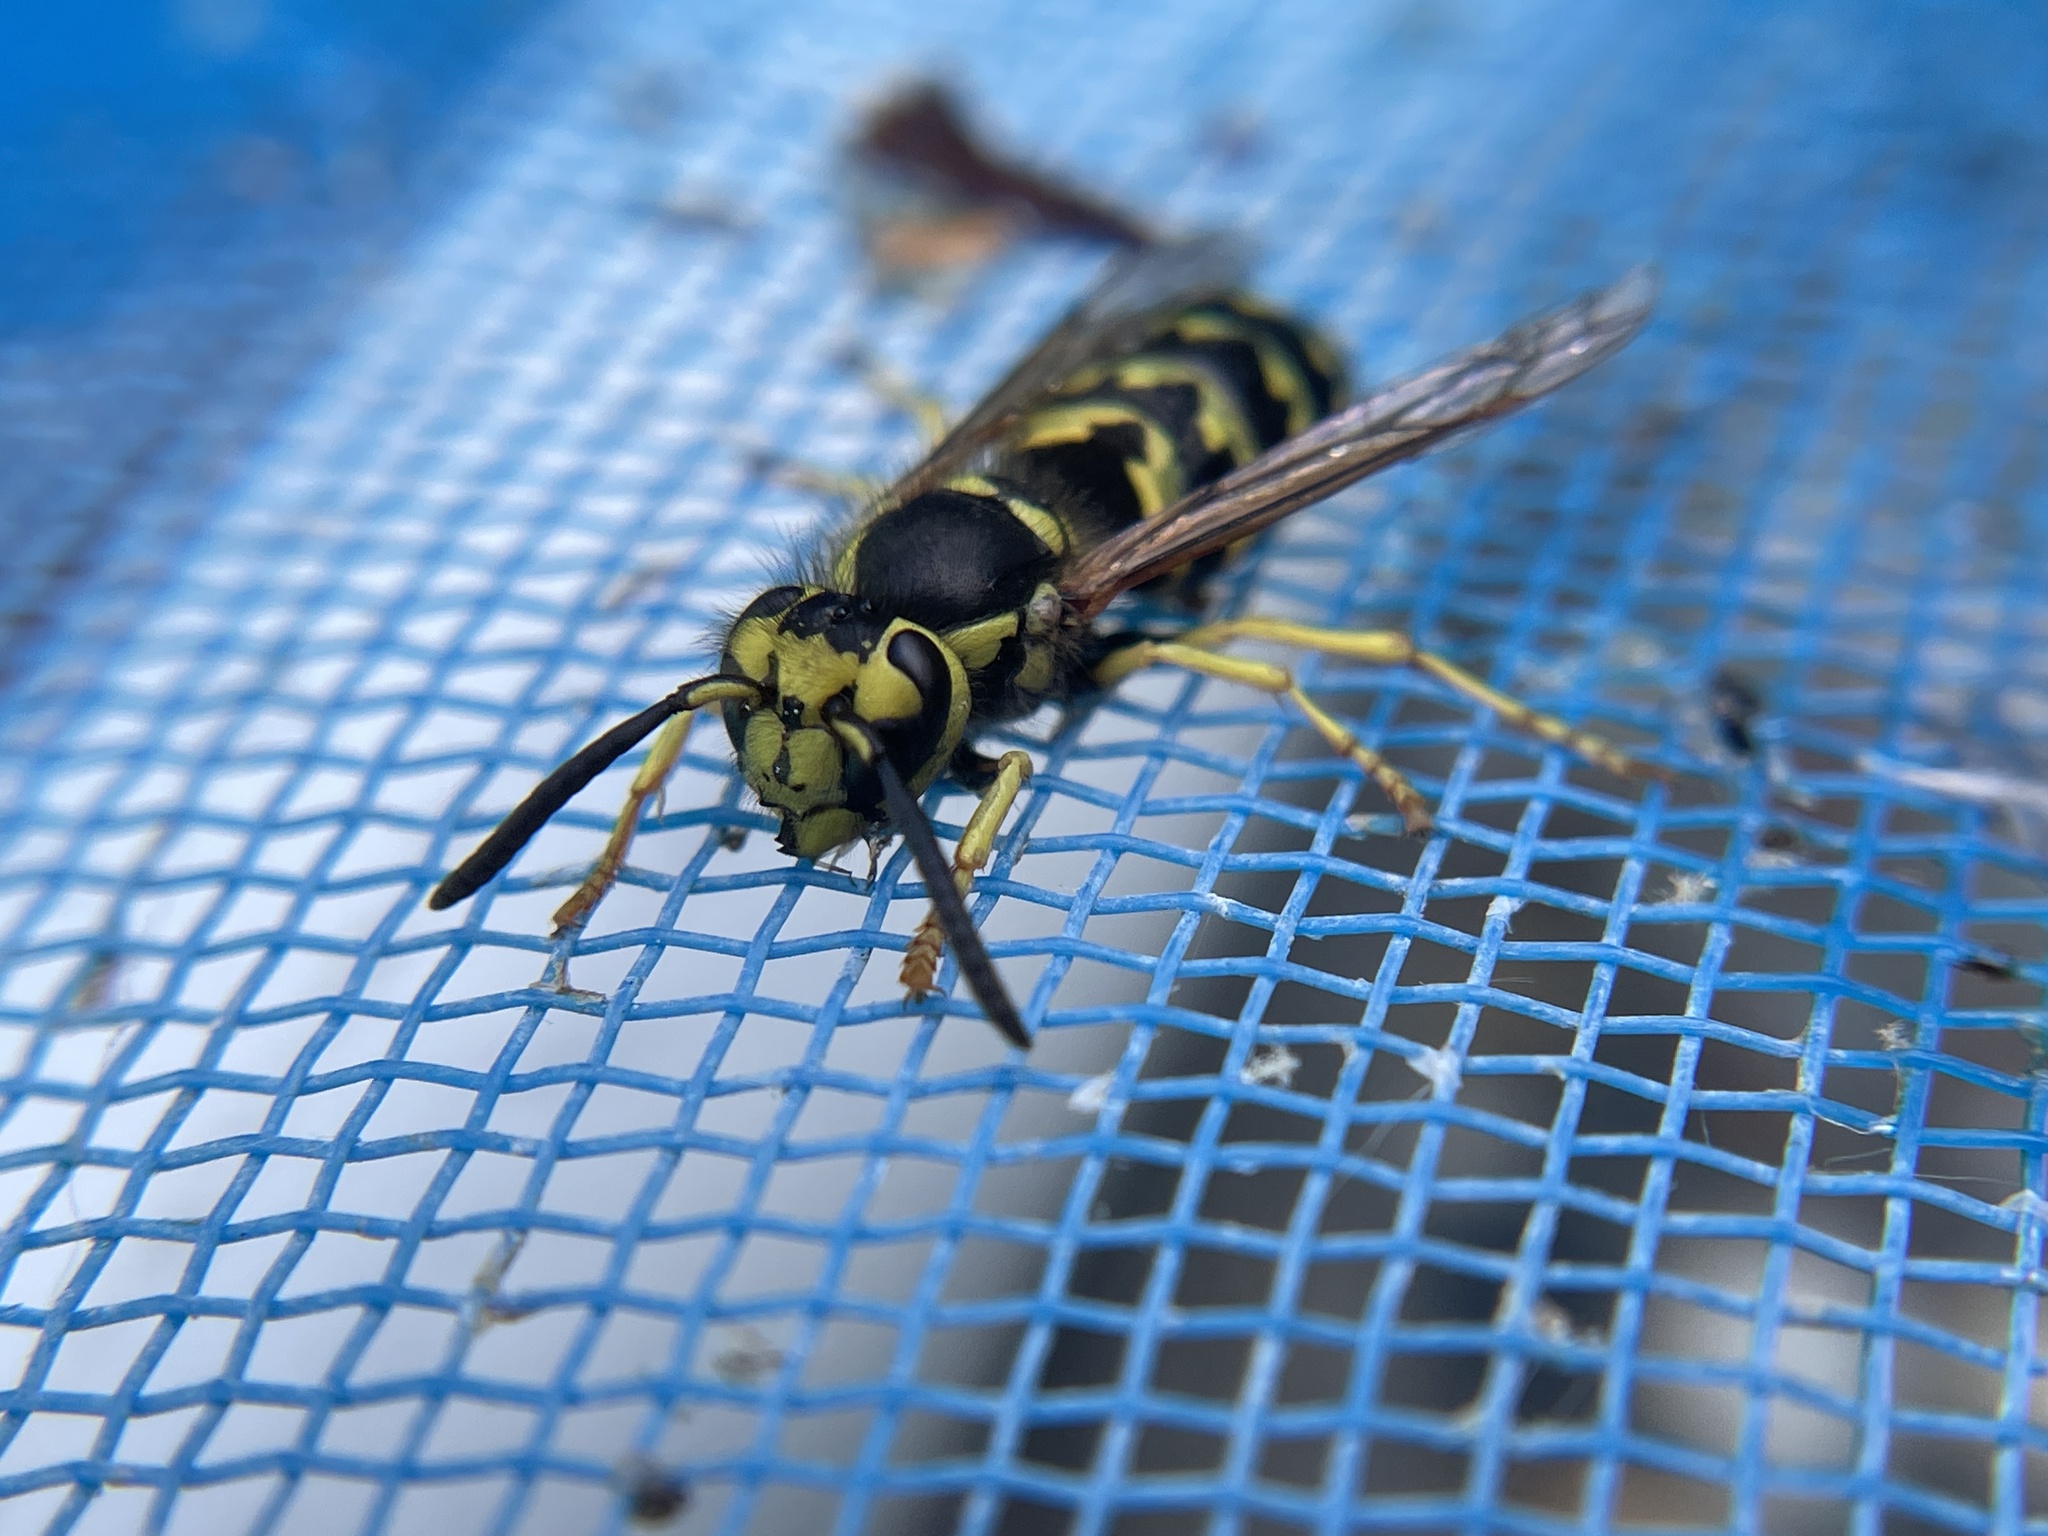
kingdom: Animalia
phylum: Arthropoda
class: Insecta
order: Hymenoptera
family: Vespidae
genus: Vespula
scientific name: Vespula pensylvanica
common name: Western yellowjacket
